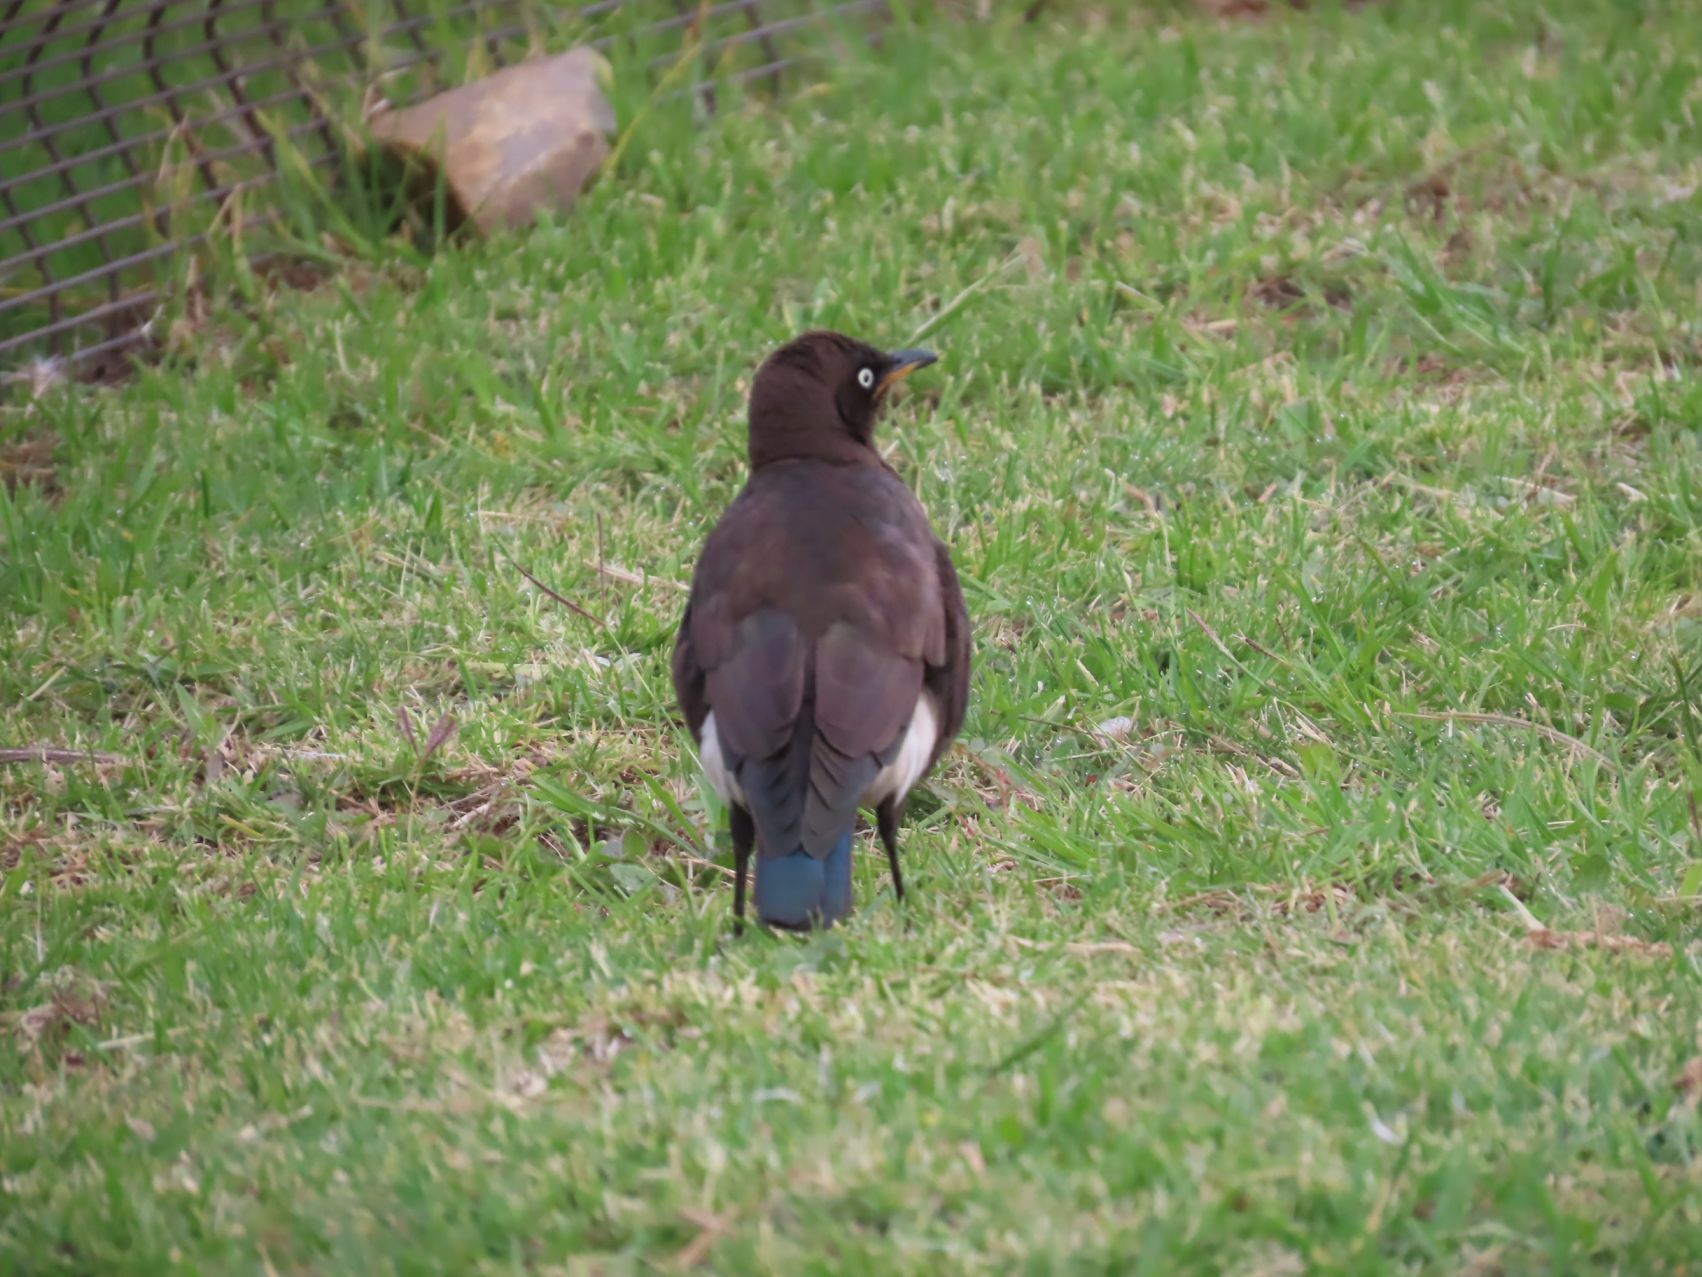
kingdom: Animalia
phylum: Chordata
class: Aves
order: Passeriformes
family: Sturnidae
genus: Lamprotornis
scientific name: Lamprotornis bicolor
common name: Pied starling
